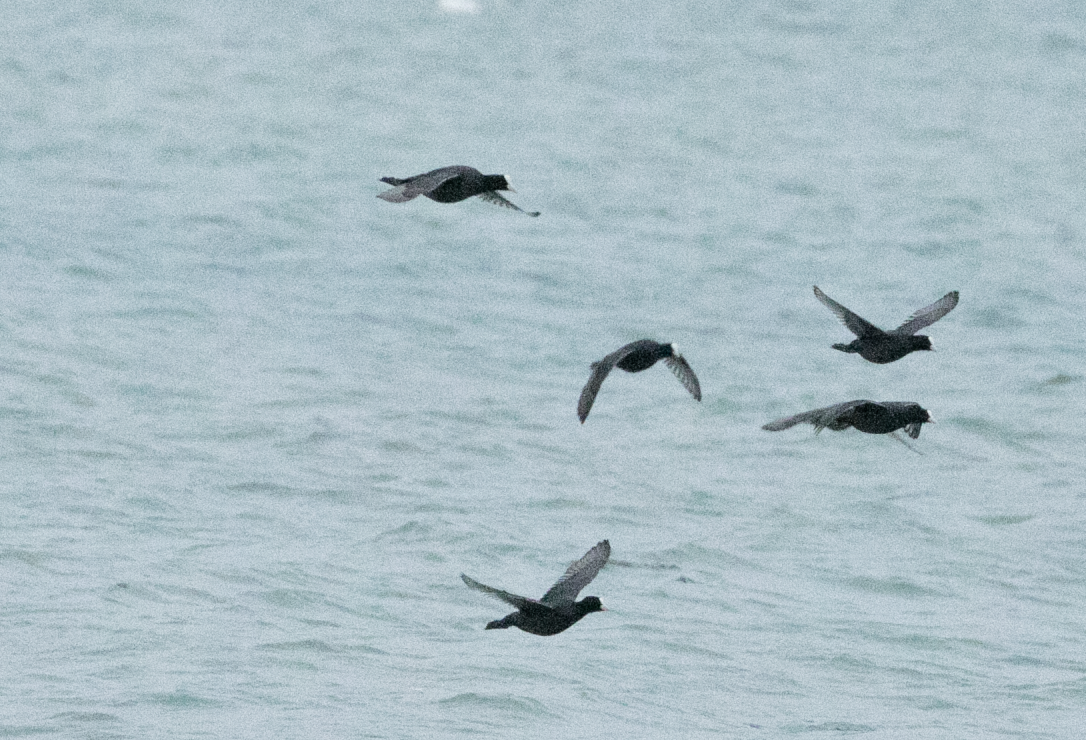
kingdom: Animalia
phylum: Chordata
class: Aves
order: Gruiformes
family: Rallidae
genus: Fulica
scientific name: Fulica atra
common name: Eurasian coot
